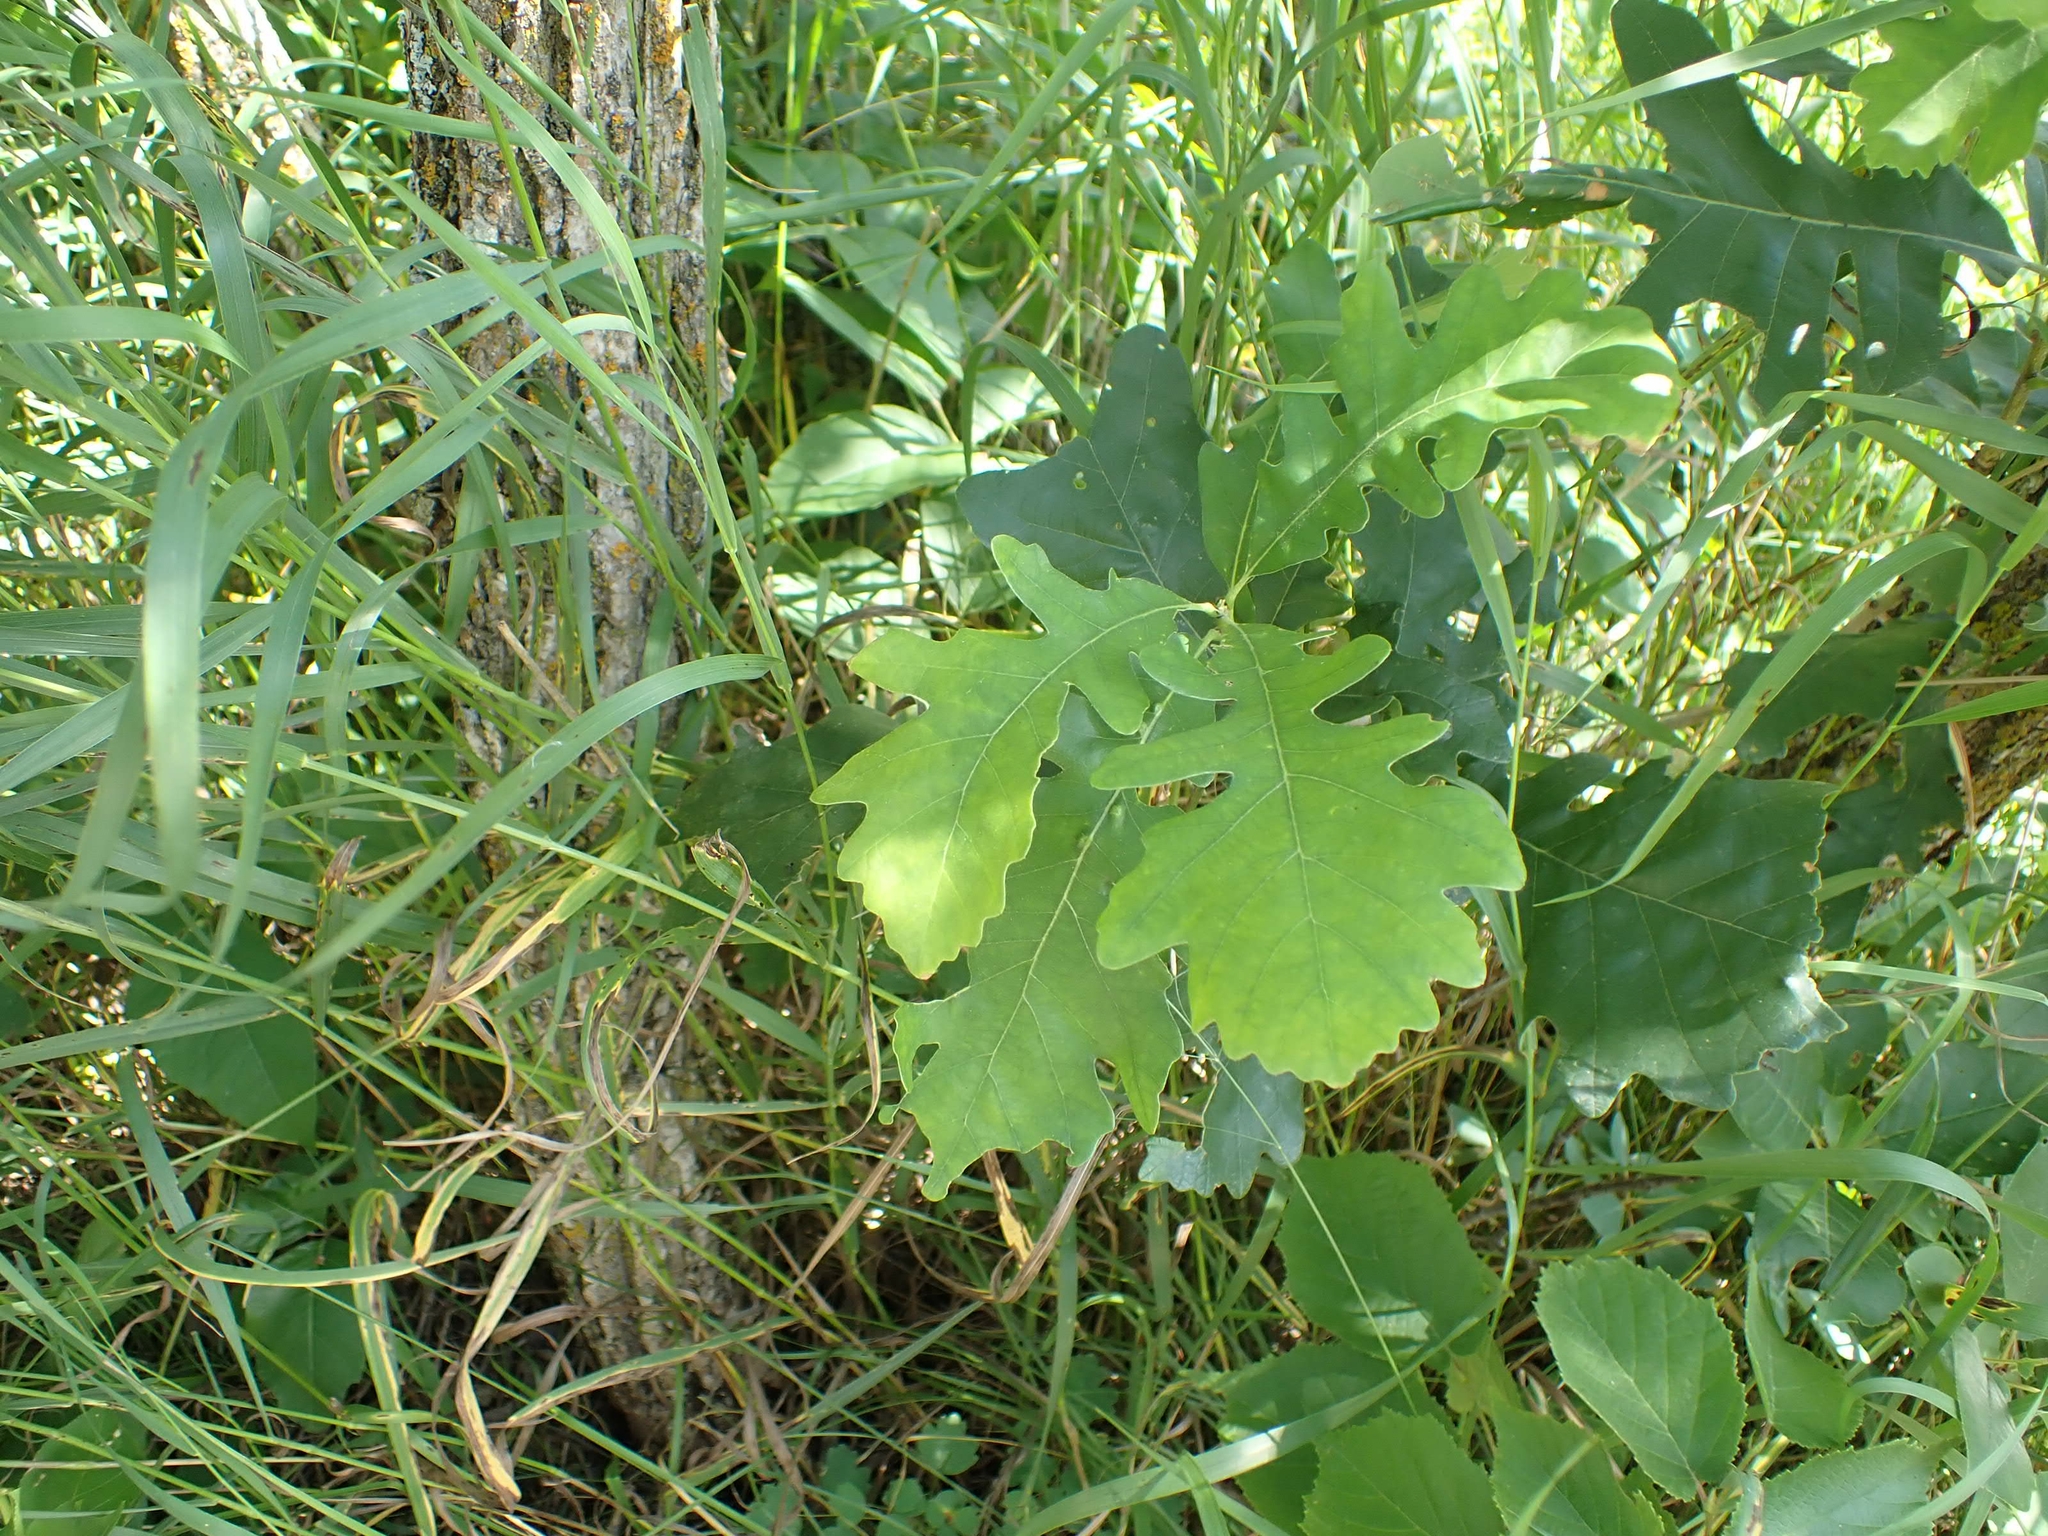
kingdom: Plantae
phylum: Tracheophyta
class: Magnoliopsida
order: Fagales
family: Fagaceae
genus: Quercus
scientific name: Quercus macrocarpa
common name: Bur oak
